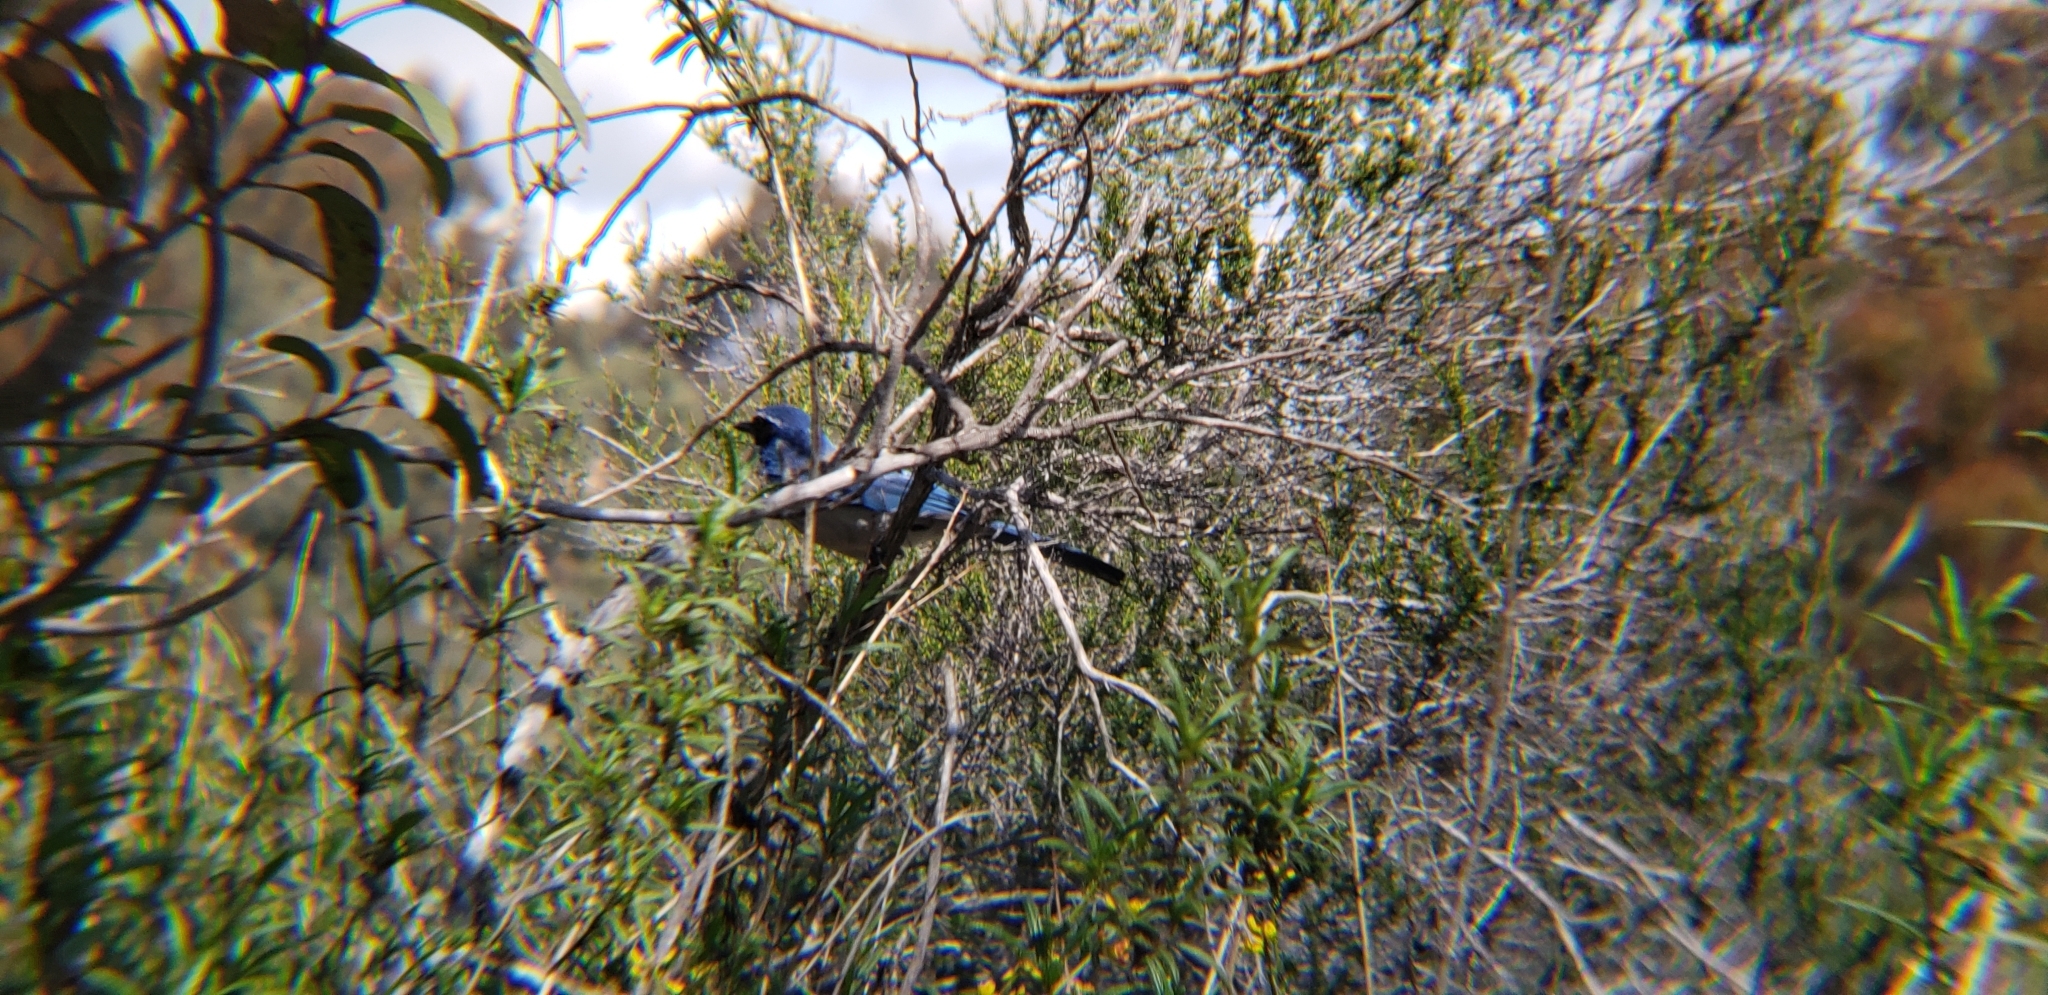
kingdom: Animalia
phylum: Chordata
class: Aves
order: Passeriformes
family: Corvidae
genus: Aphelocoma
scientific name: Aphelocoma californica
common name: California scrub-jay
